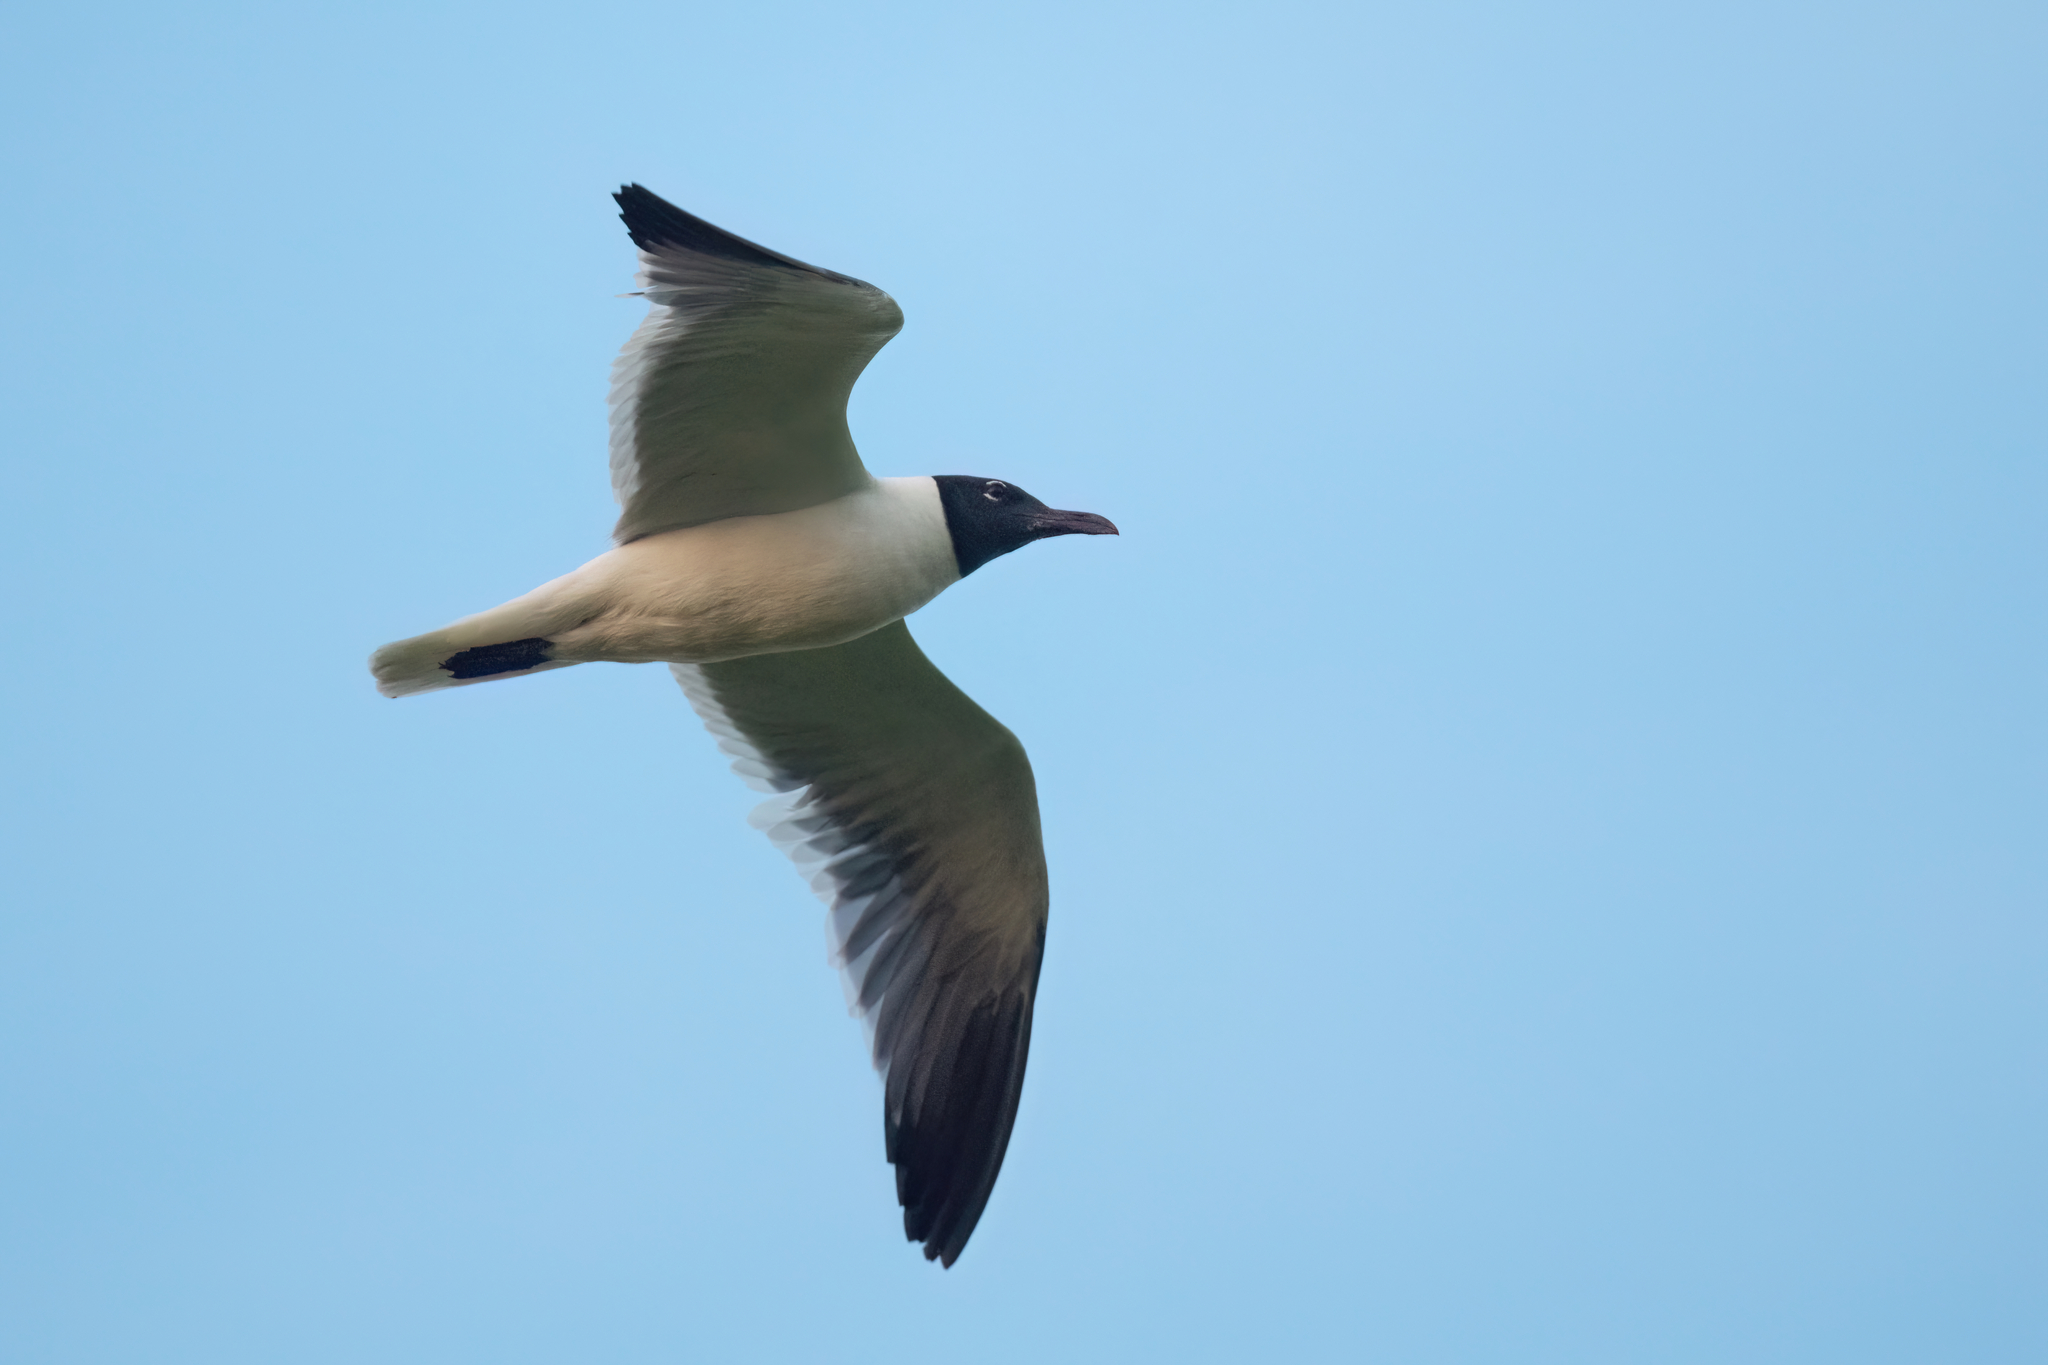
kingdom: Animalia
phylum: Chordata
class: Aves
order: Charadriiformes
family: Laridae
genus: Leucophaeus
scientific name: Leucophaeus atricilla
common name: Laughing gull
